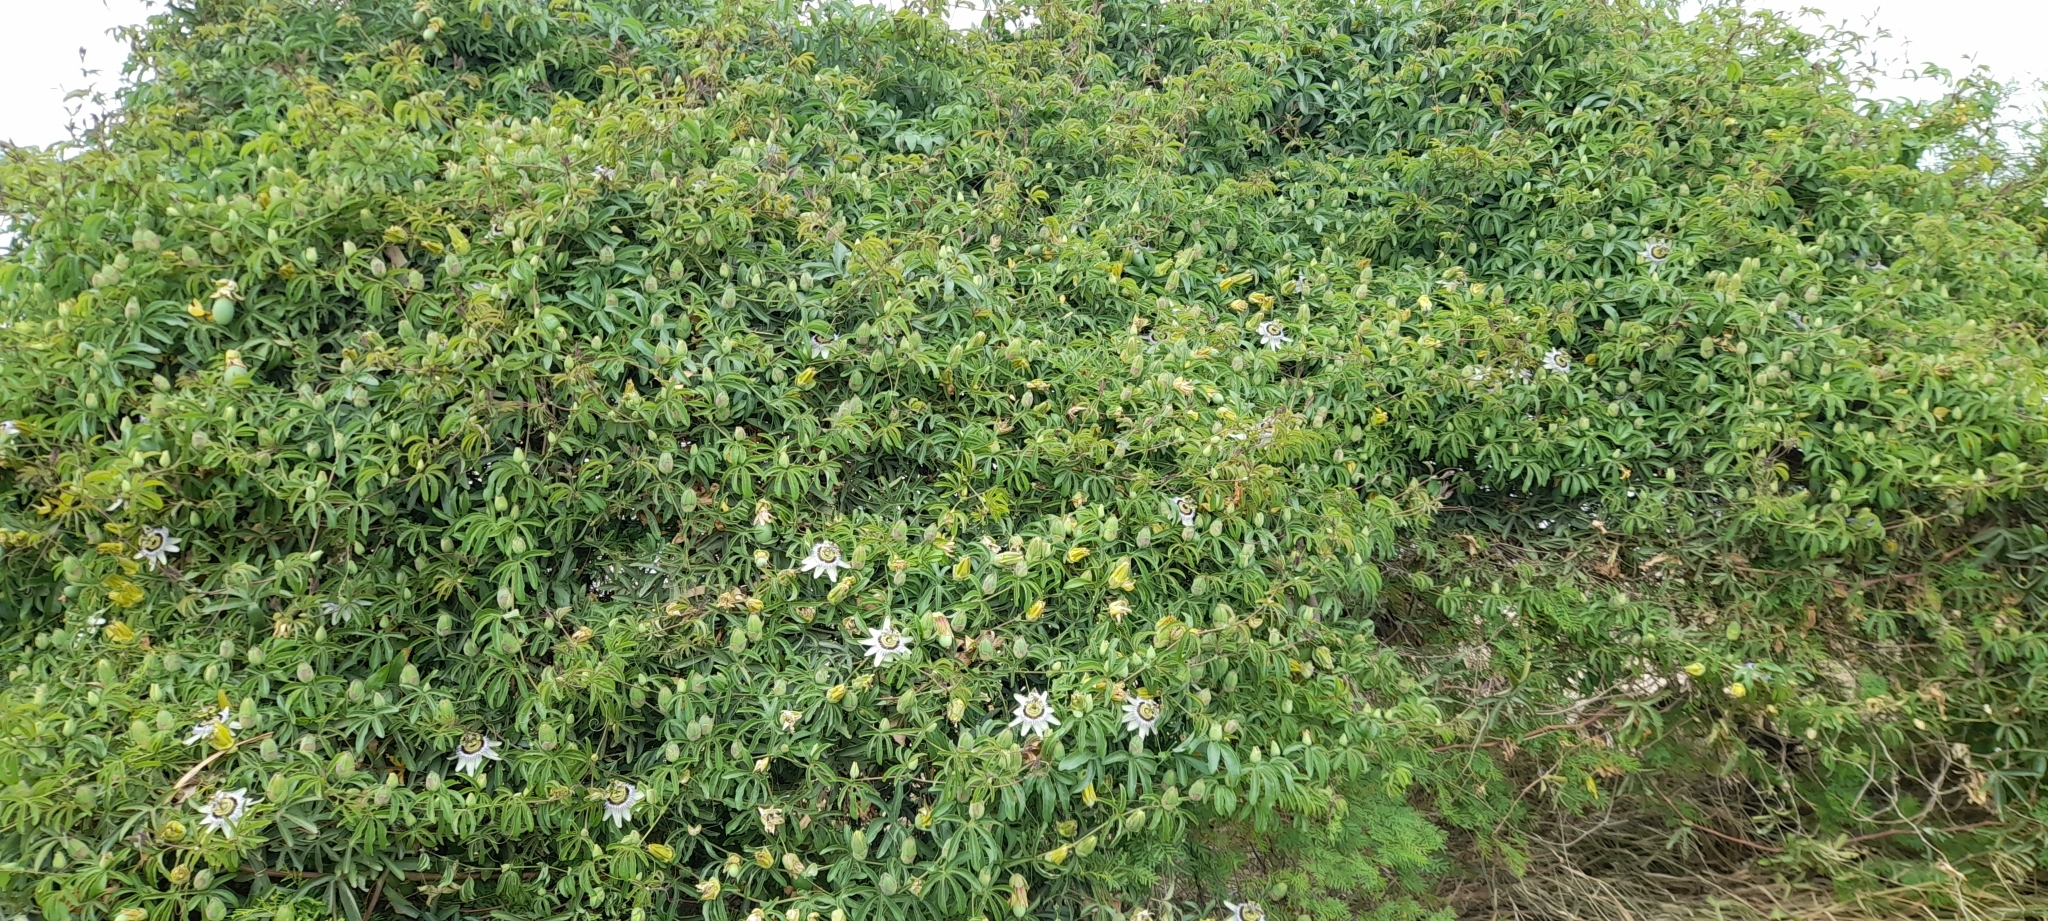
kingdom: Plantae
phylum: Tracheophyta
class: Magnoliopsida
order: Malpighiales
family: Passifloraceae
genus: Passiflora
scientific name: Passiflora caerulea
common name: Blue passionflower
